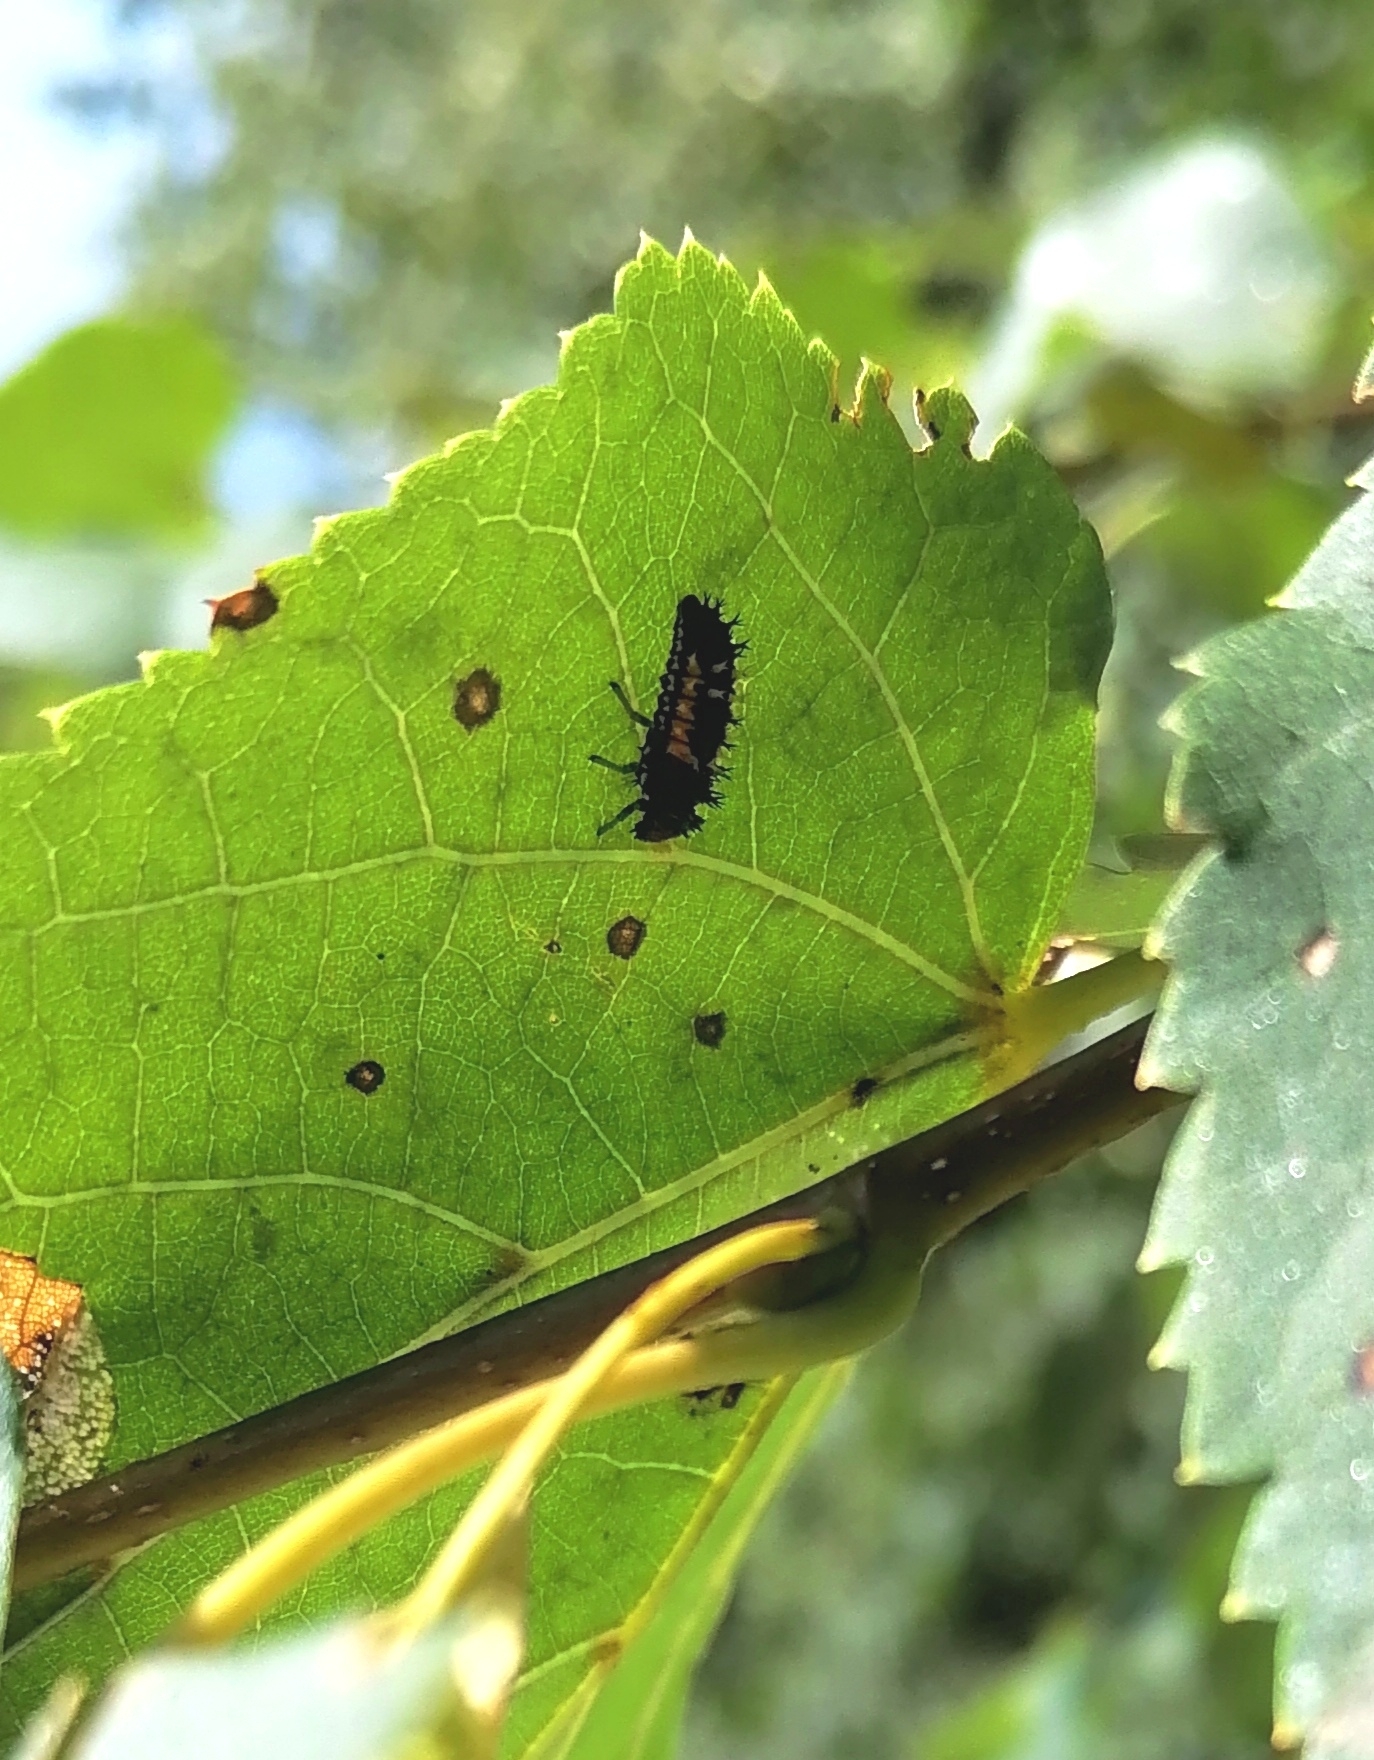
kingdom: Animalia
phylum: Arthropoda
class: Insecta
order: Coleoptera
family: Coccinellidae
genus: Harmonia
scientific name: Harmonia axyridis
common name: Harlequin ladybird
